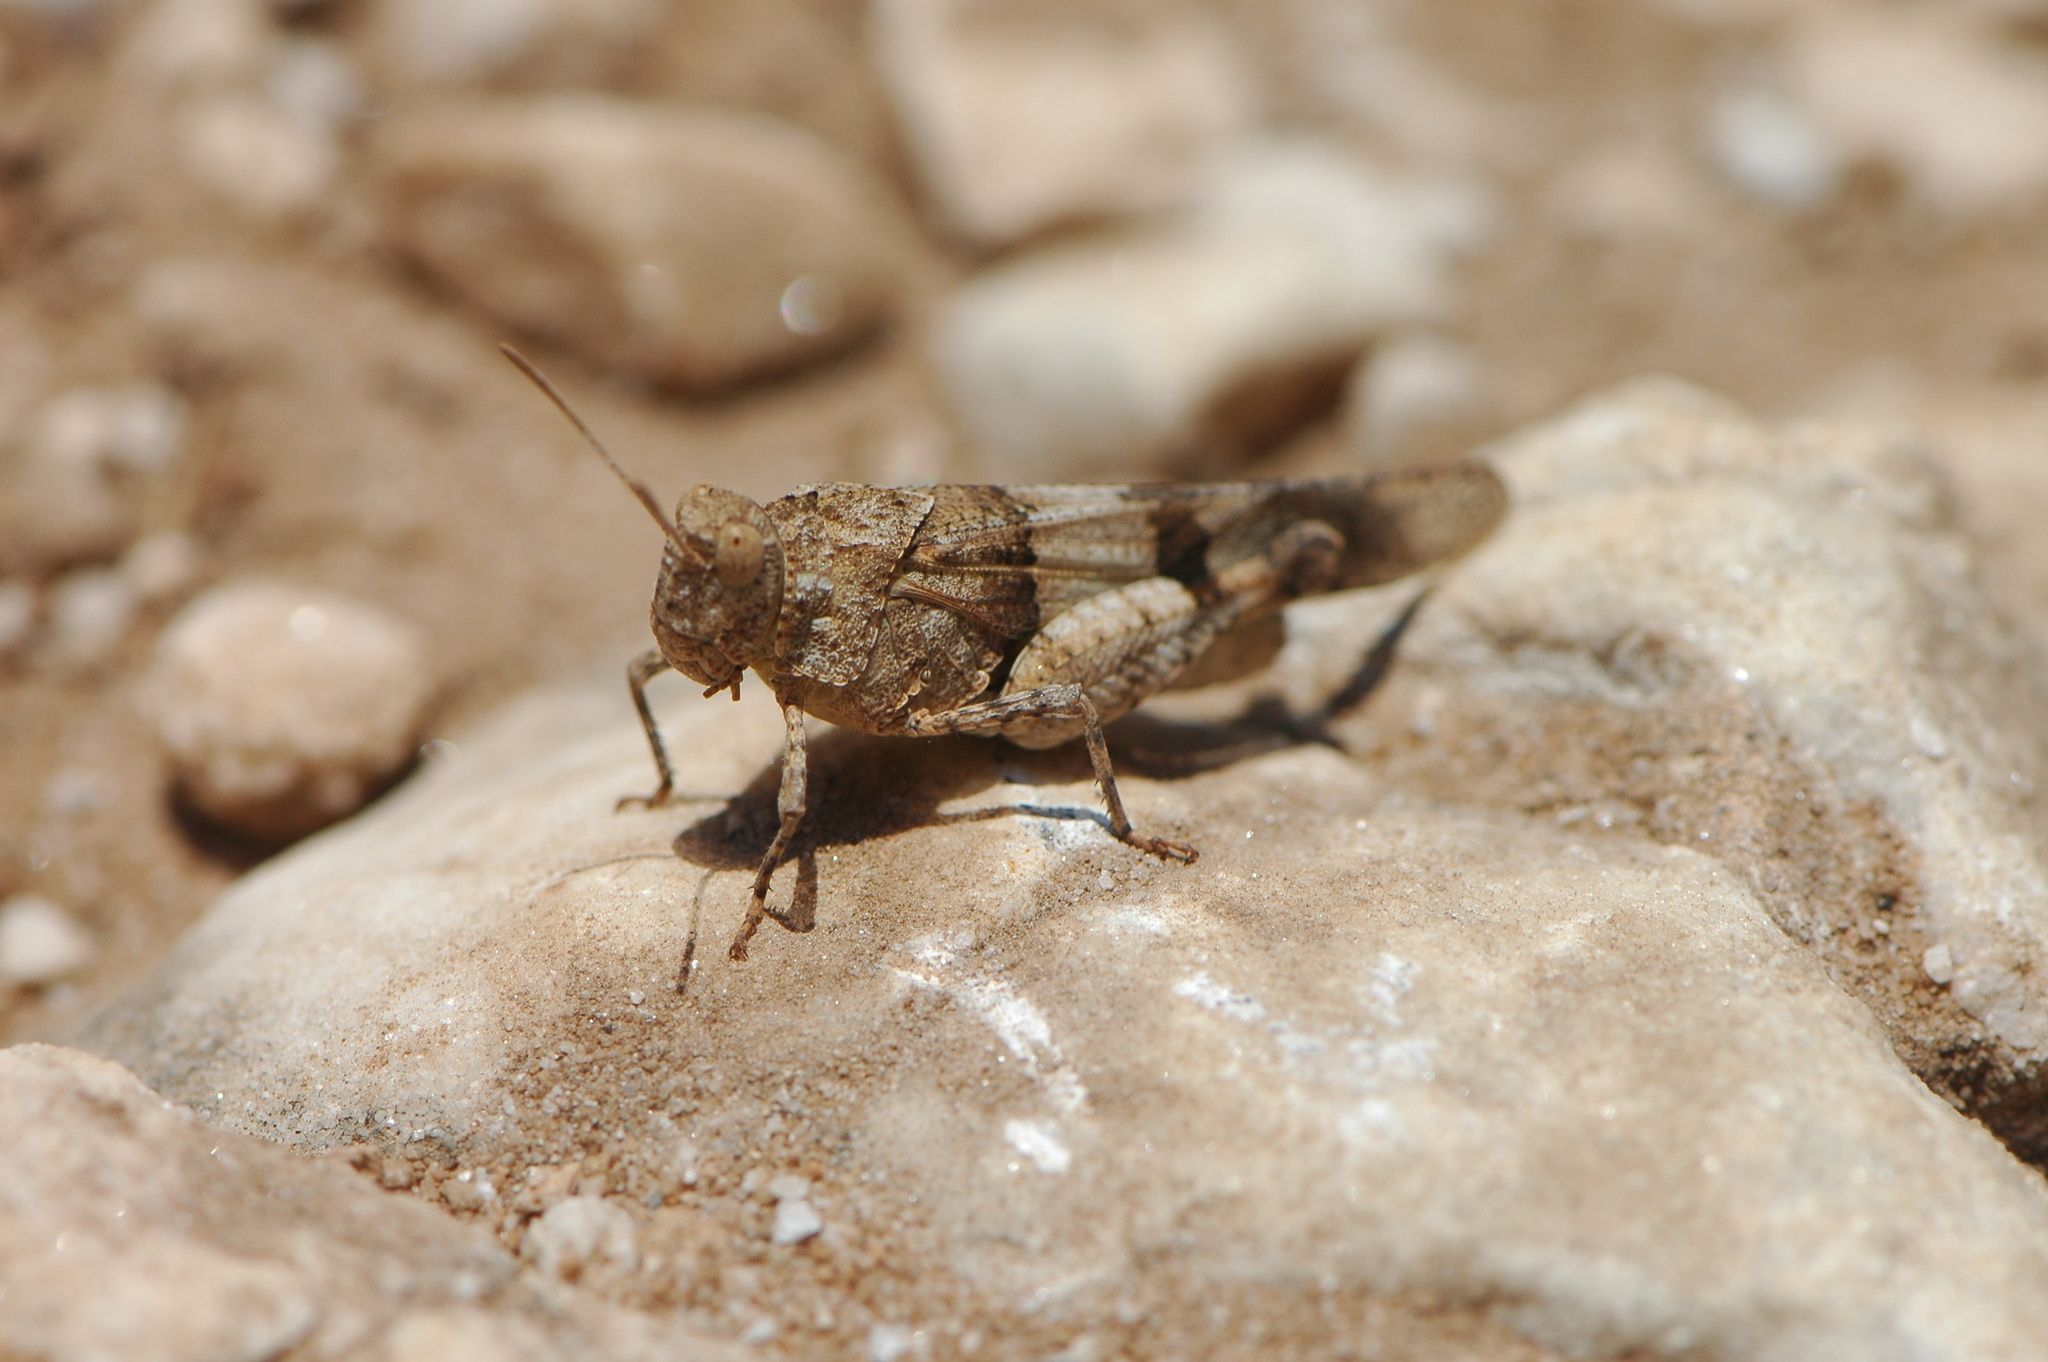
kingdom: Animalia
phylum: Arthropoda
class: Insecta
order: Orthoptera
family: Acrididae
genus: Oedipoda
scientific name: Oedipoda caerulescens
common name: Blue-winged grasshopper
